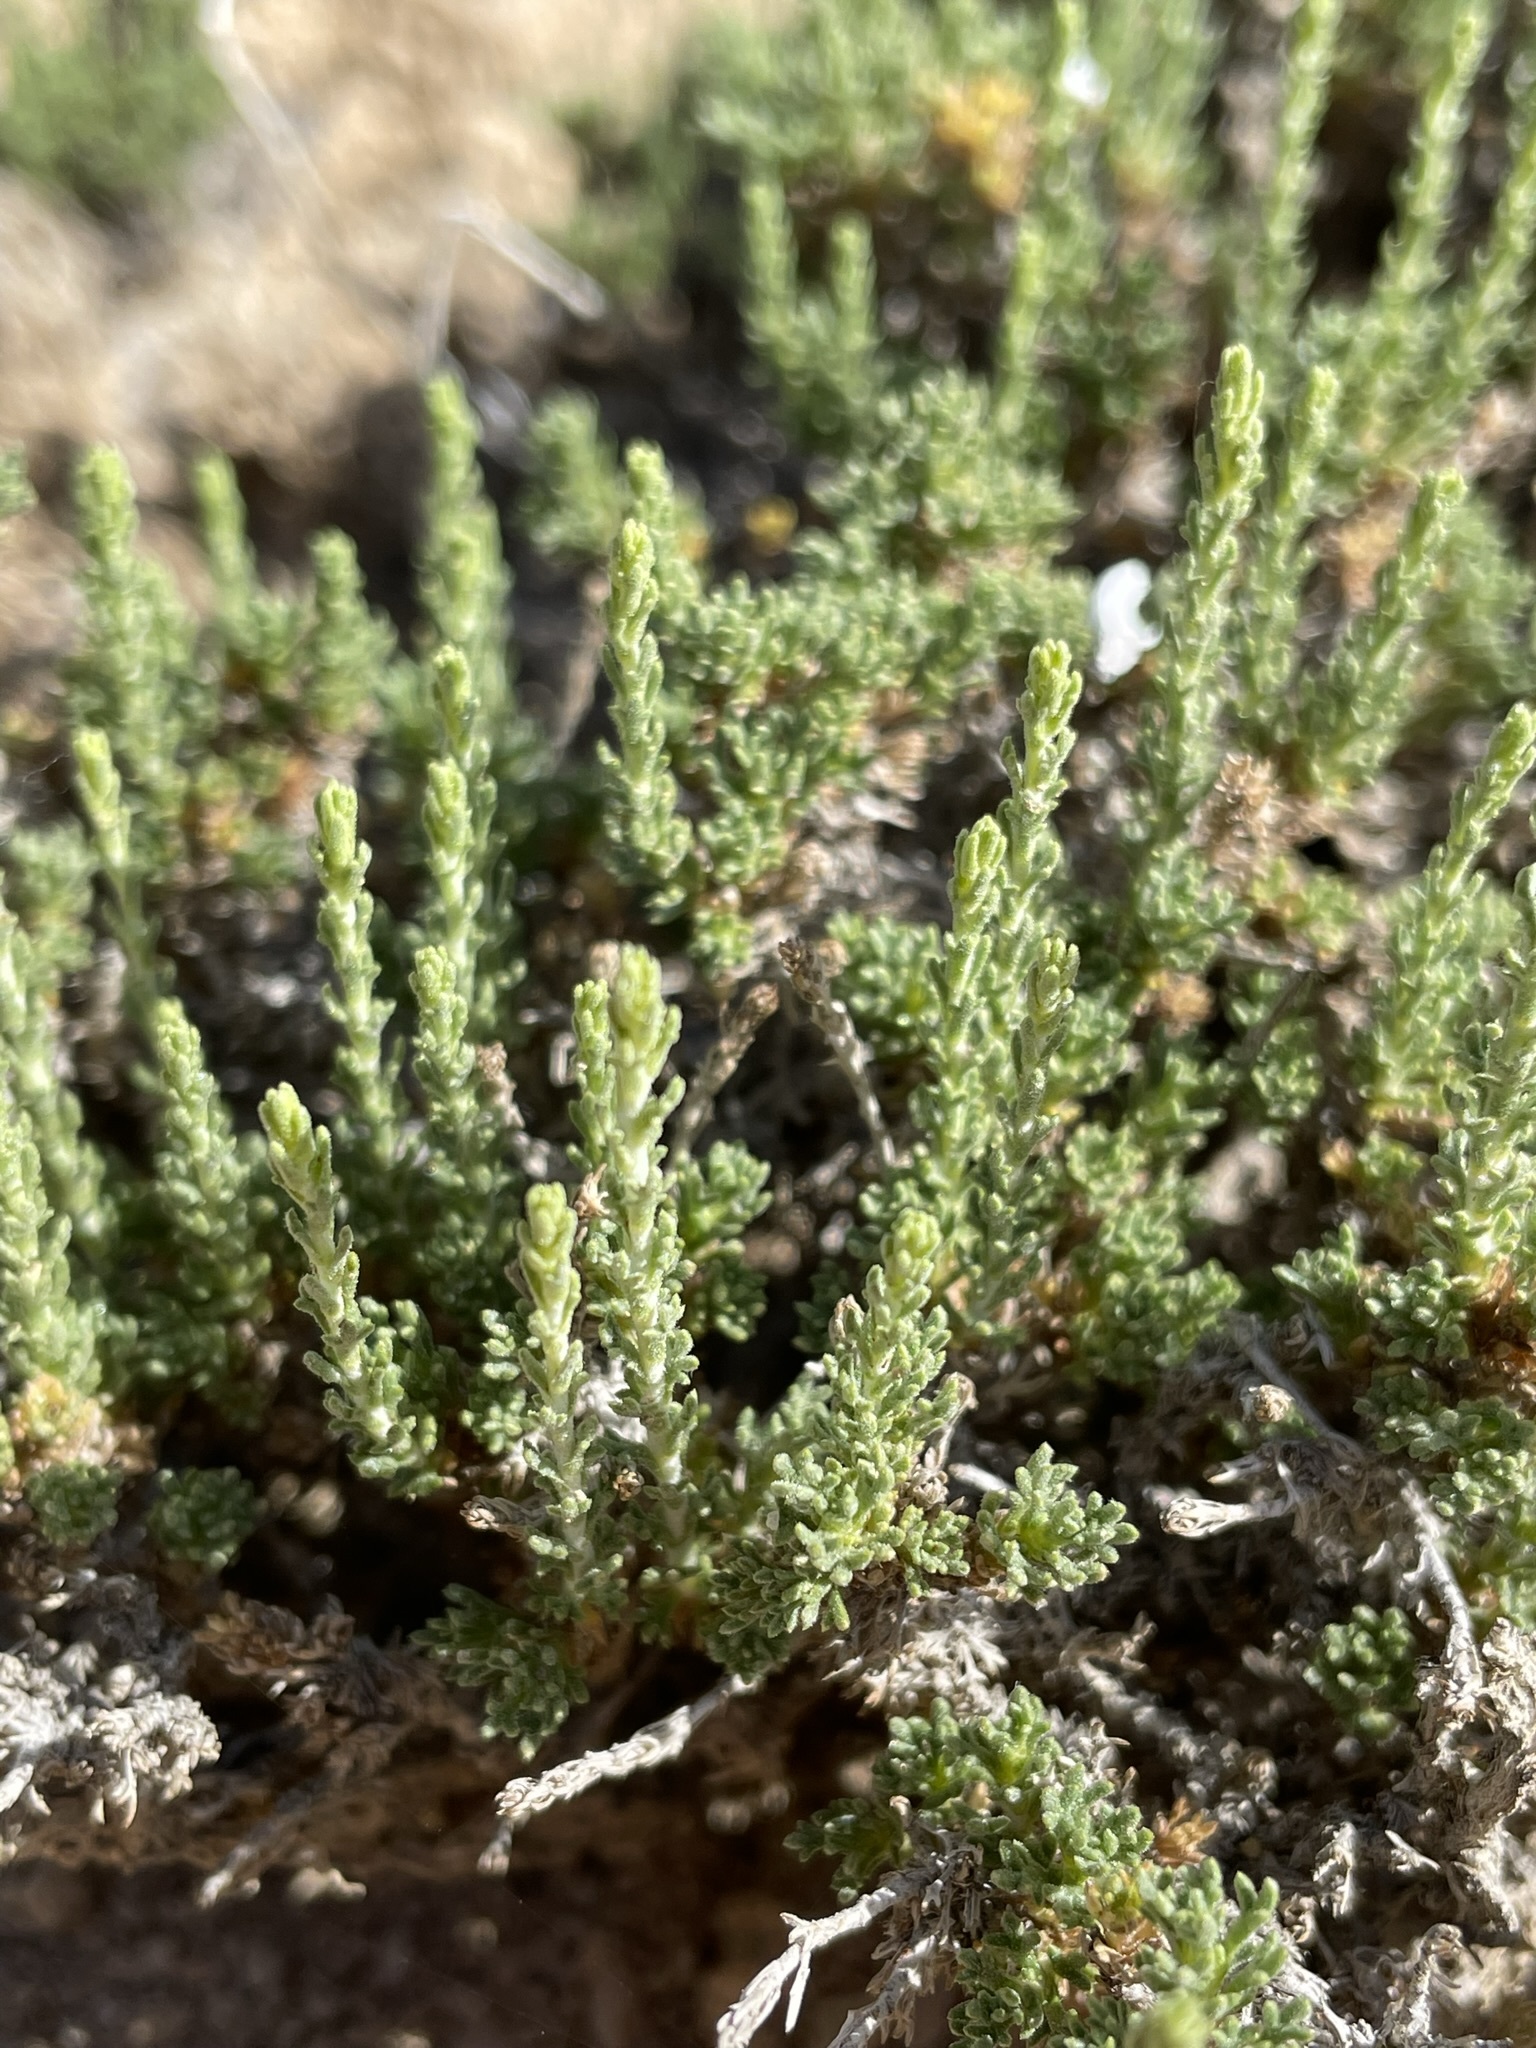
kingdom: Plantae
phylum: Tracheophyta
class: Magnoliopsida
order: Asterales
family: Asteraceae
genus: Artemisia
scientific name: Artemisia pygmaea
